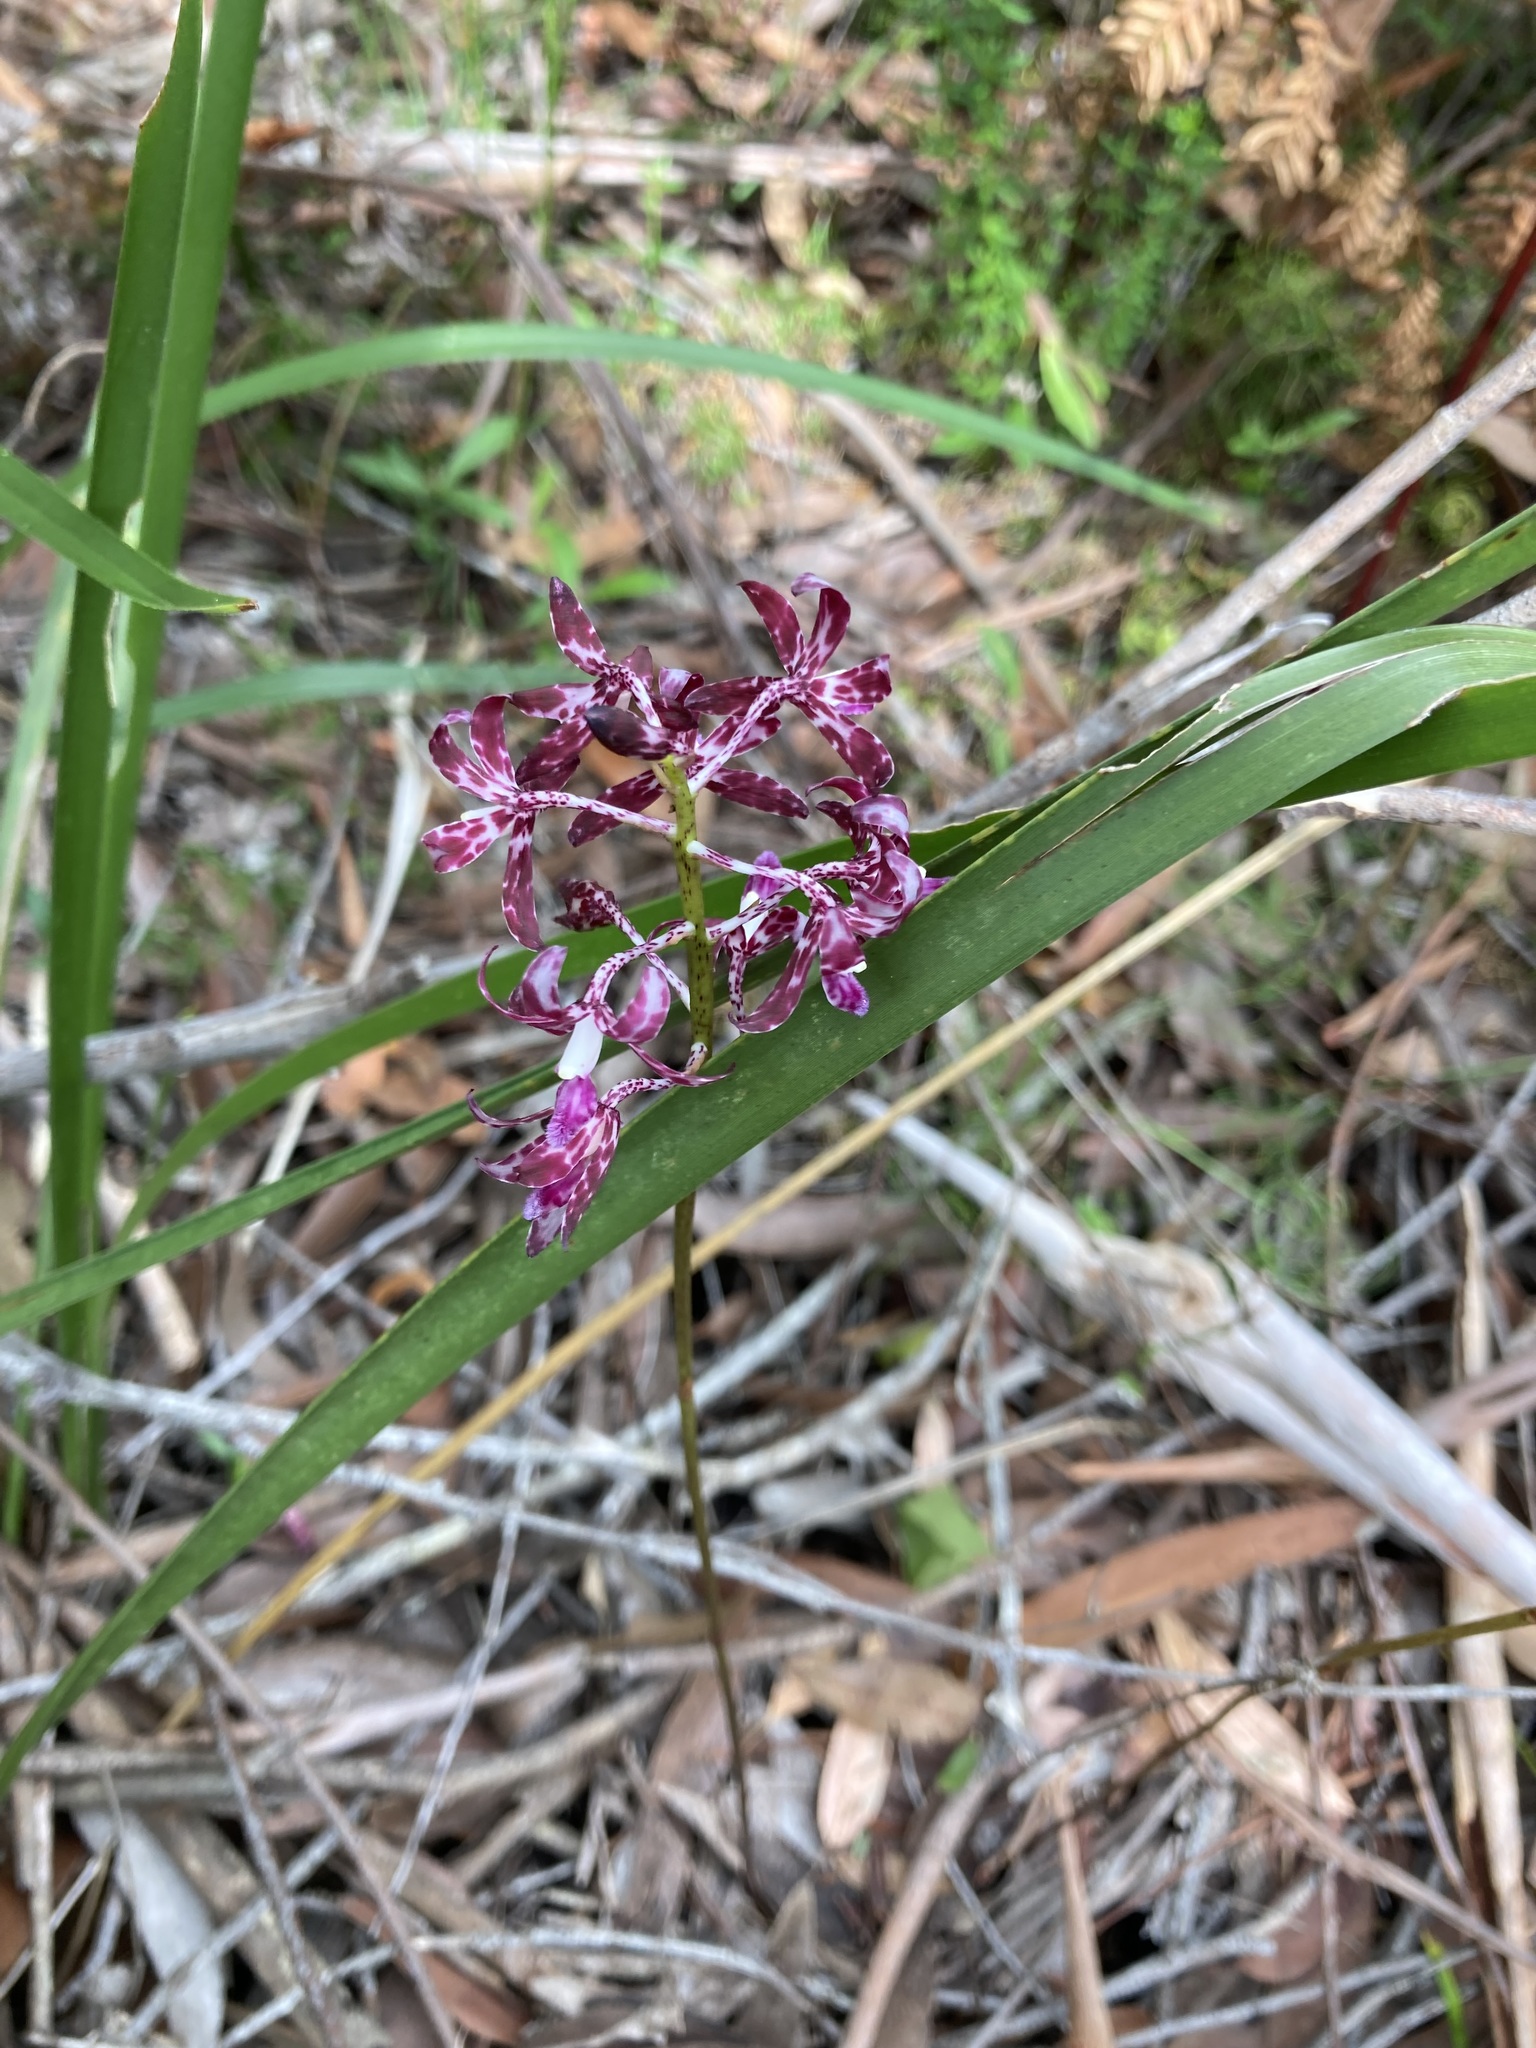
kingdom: Plantae
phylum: Tracheophyta
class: Liliopsida
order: Asparagales
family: Orchidaceae
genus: Dipodium
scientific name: Dipodium variegatum
